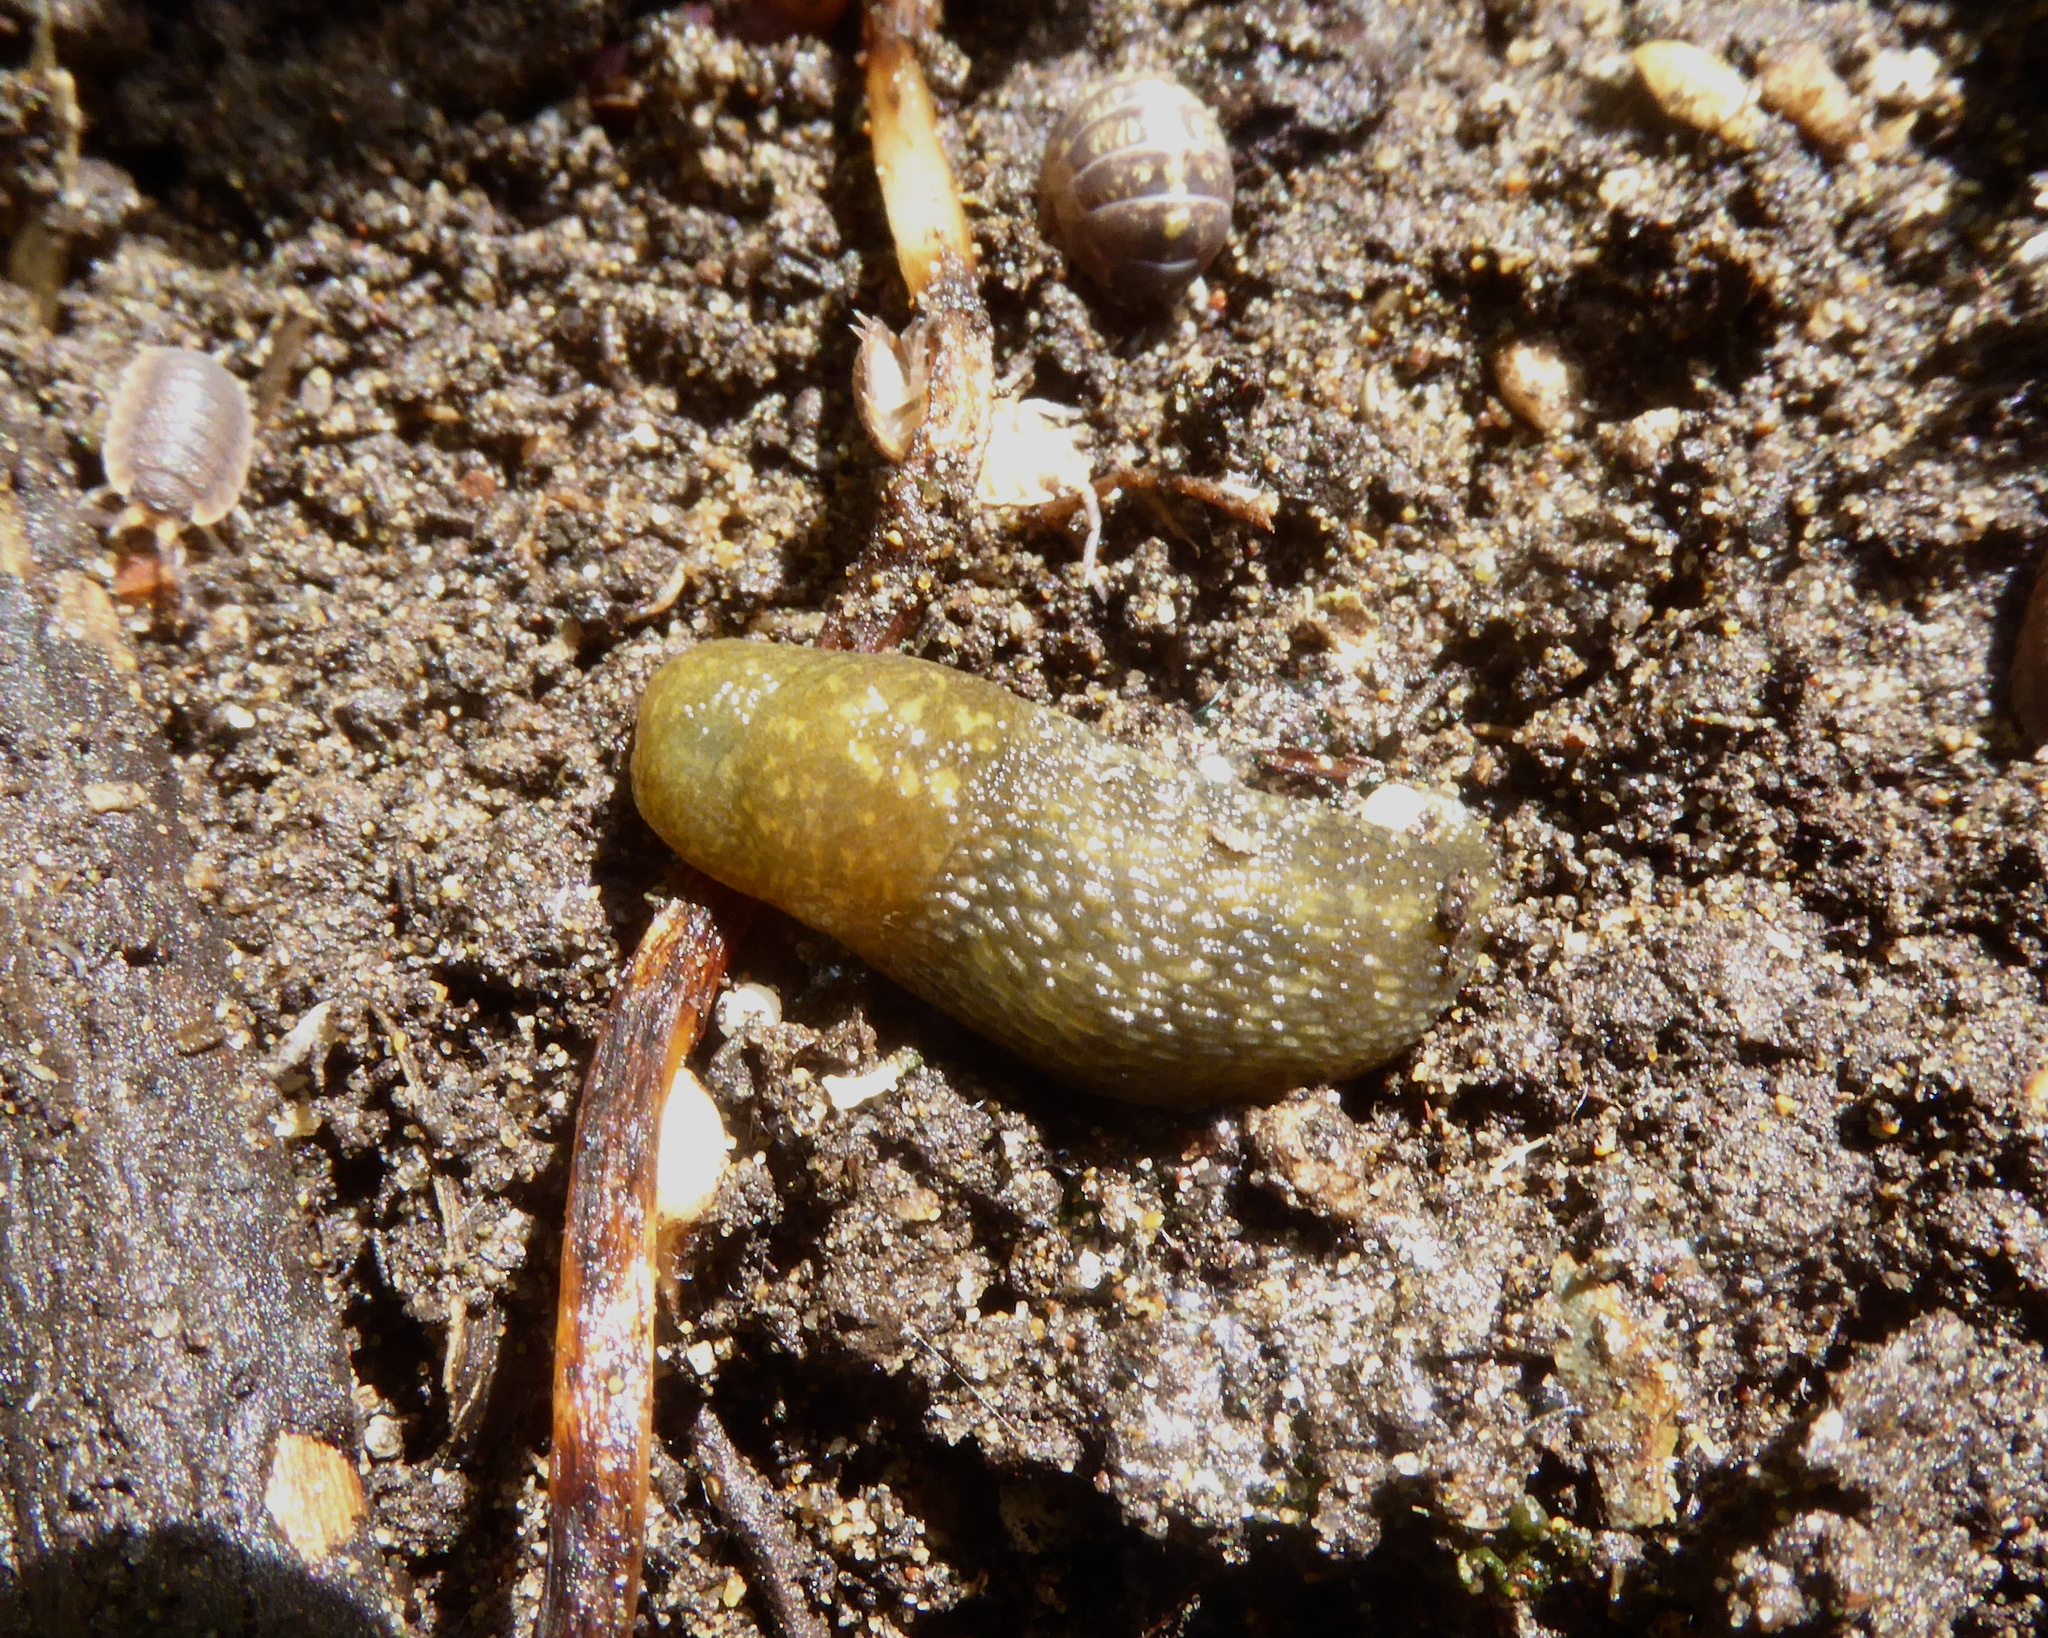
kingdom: Animalia
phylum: Mollusca
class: Gastropoda
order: Stylommatophora
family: Limacidae
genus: Limacus
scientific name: Limacus flavus
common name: Yellow gardenslug
